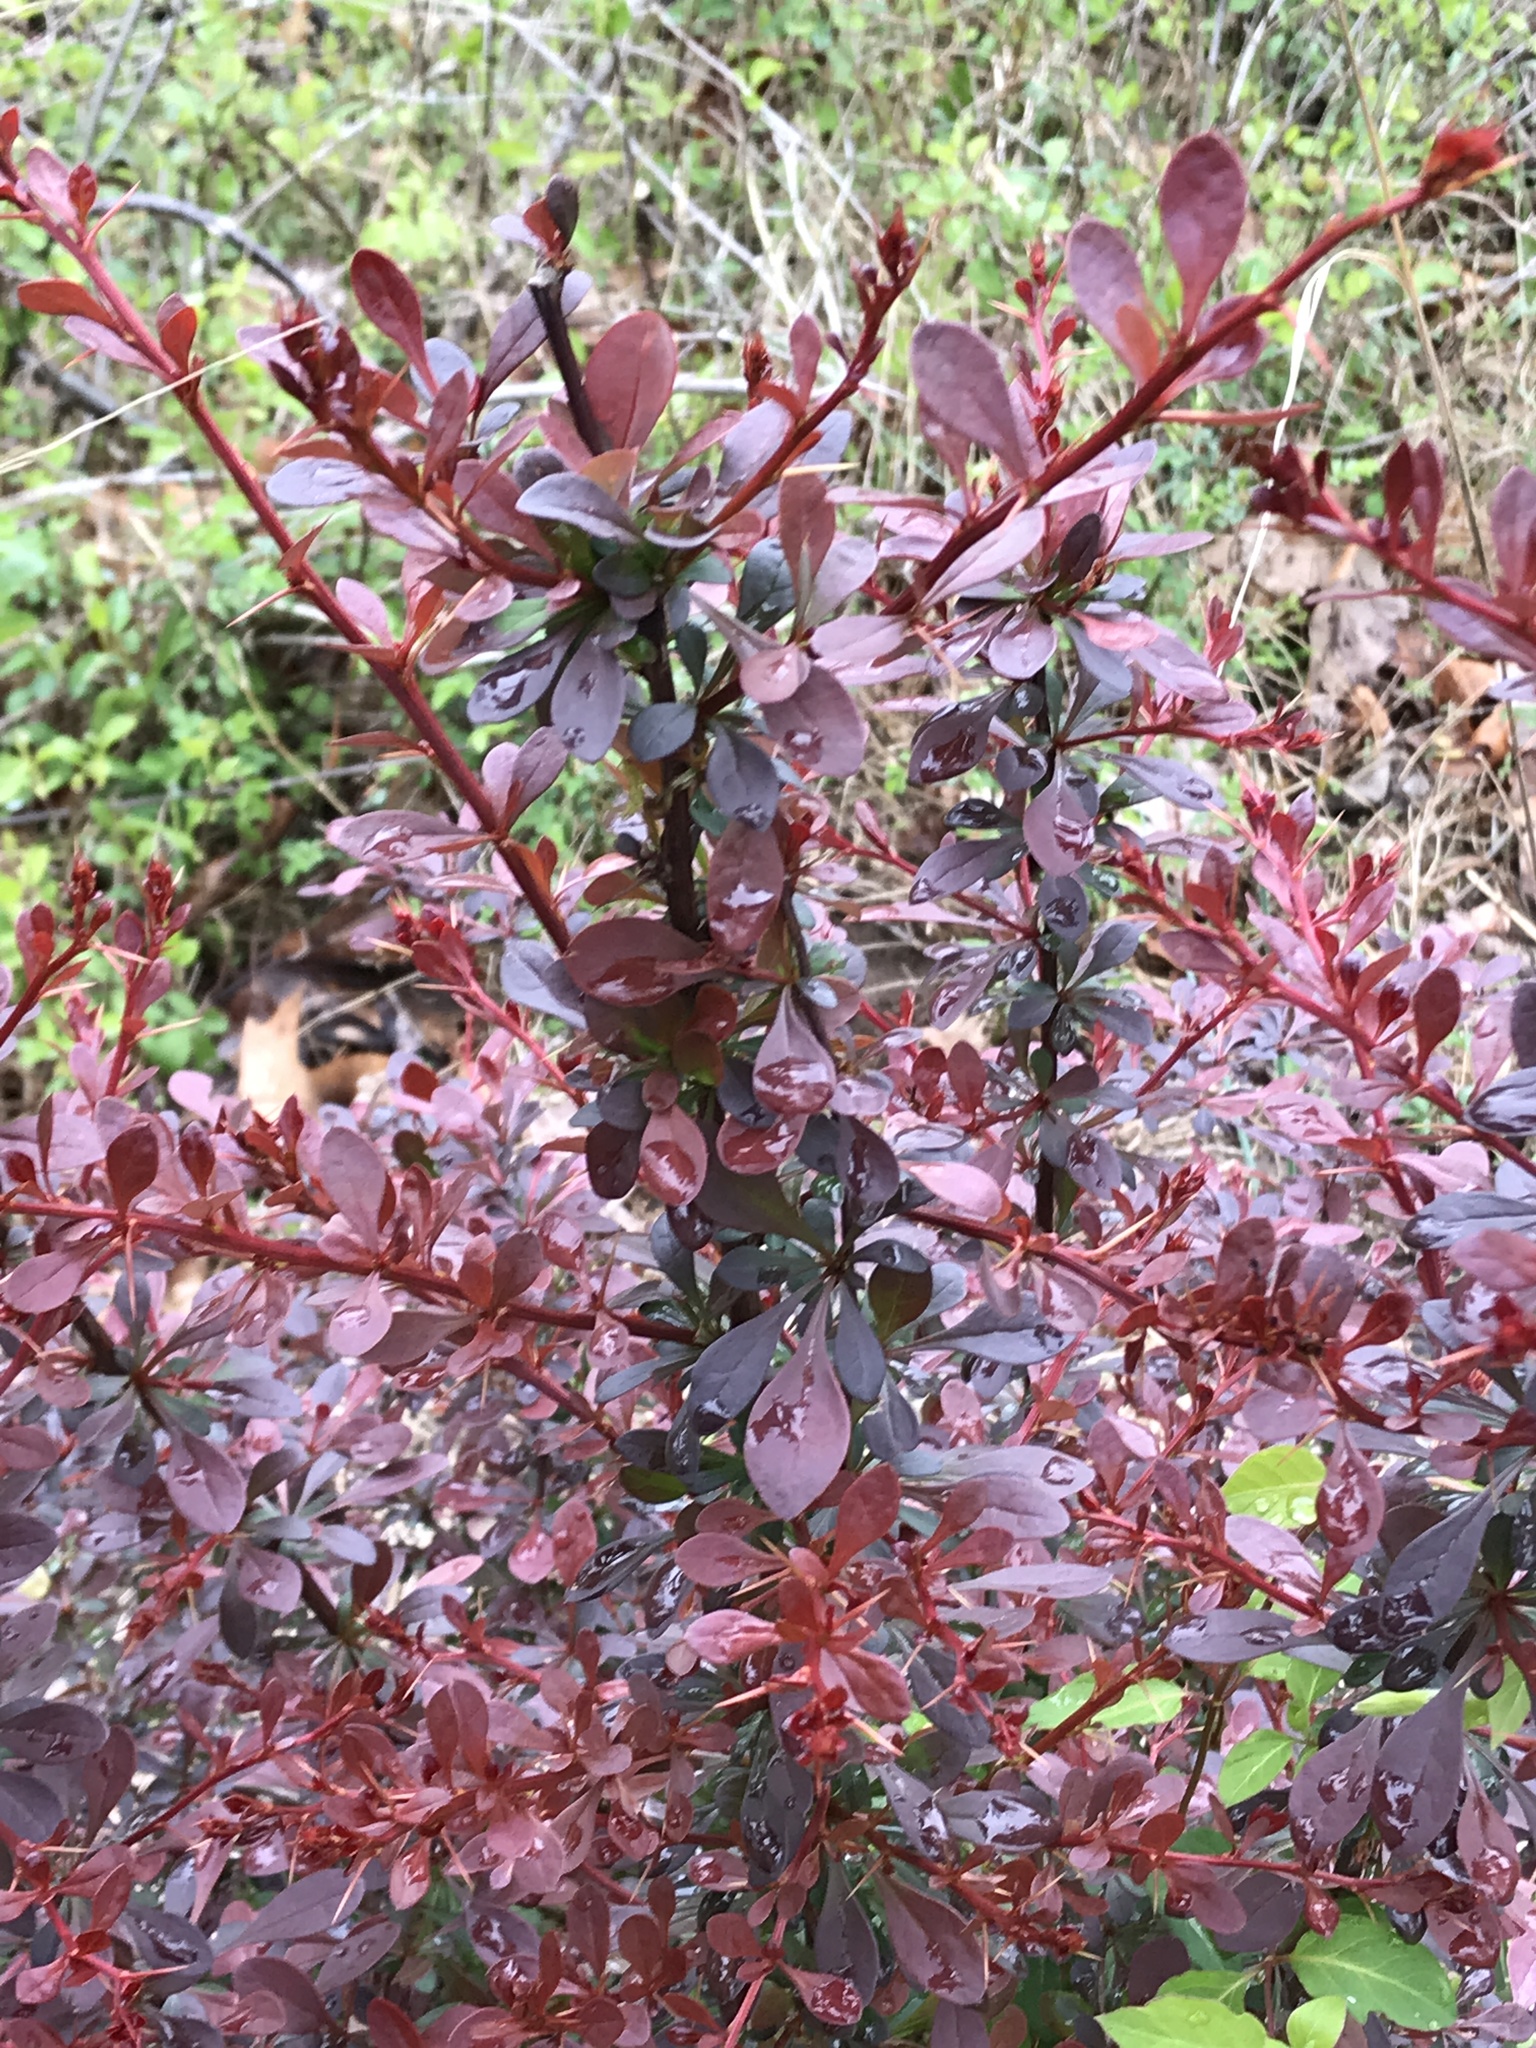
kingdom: Plantae
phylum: Tracheophyta
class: Magnoliopsida
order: Ranunculales
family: Berberidaceae
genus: Berberis
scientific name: Berberis thunbergii
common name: Japanese barberry
